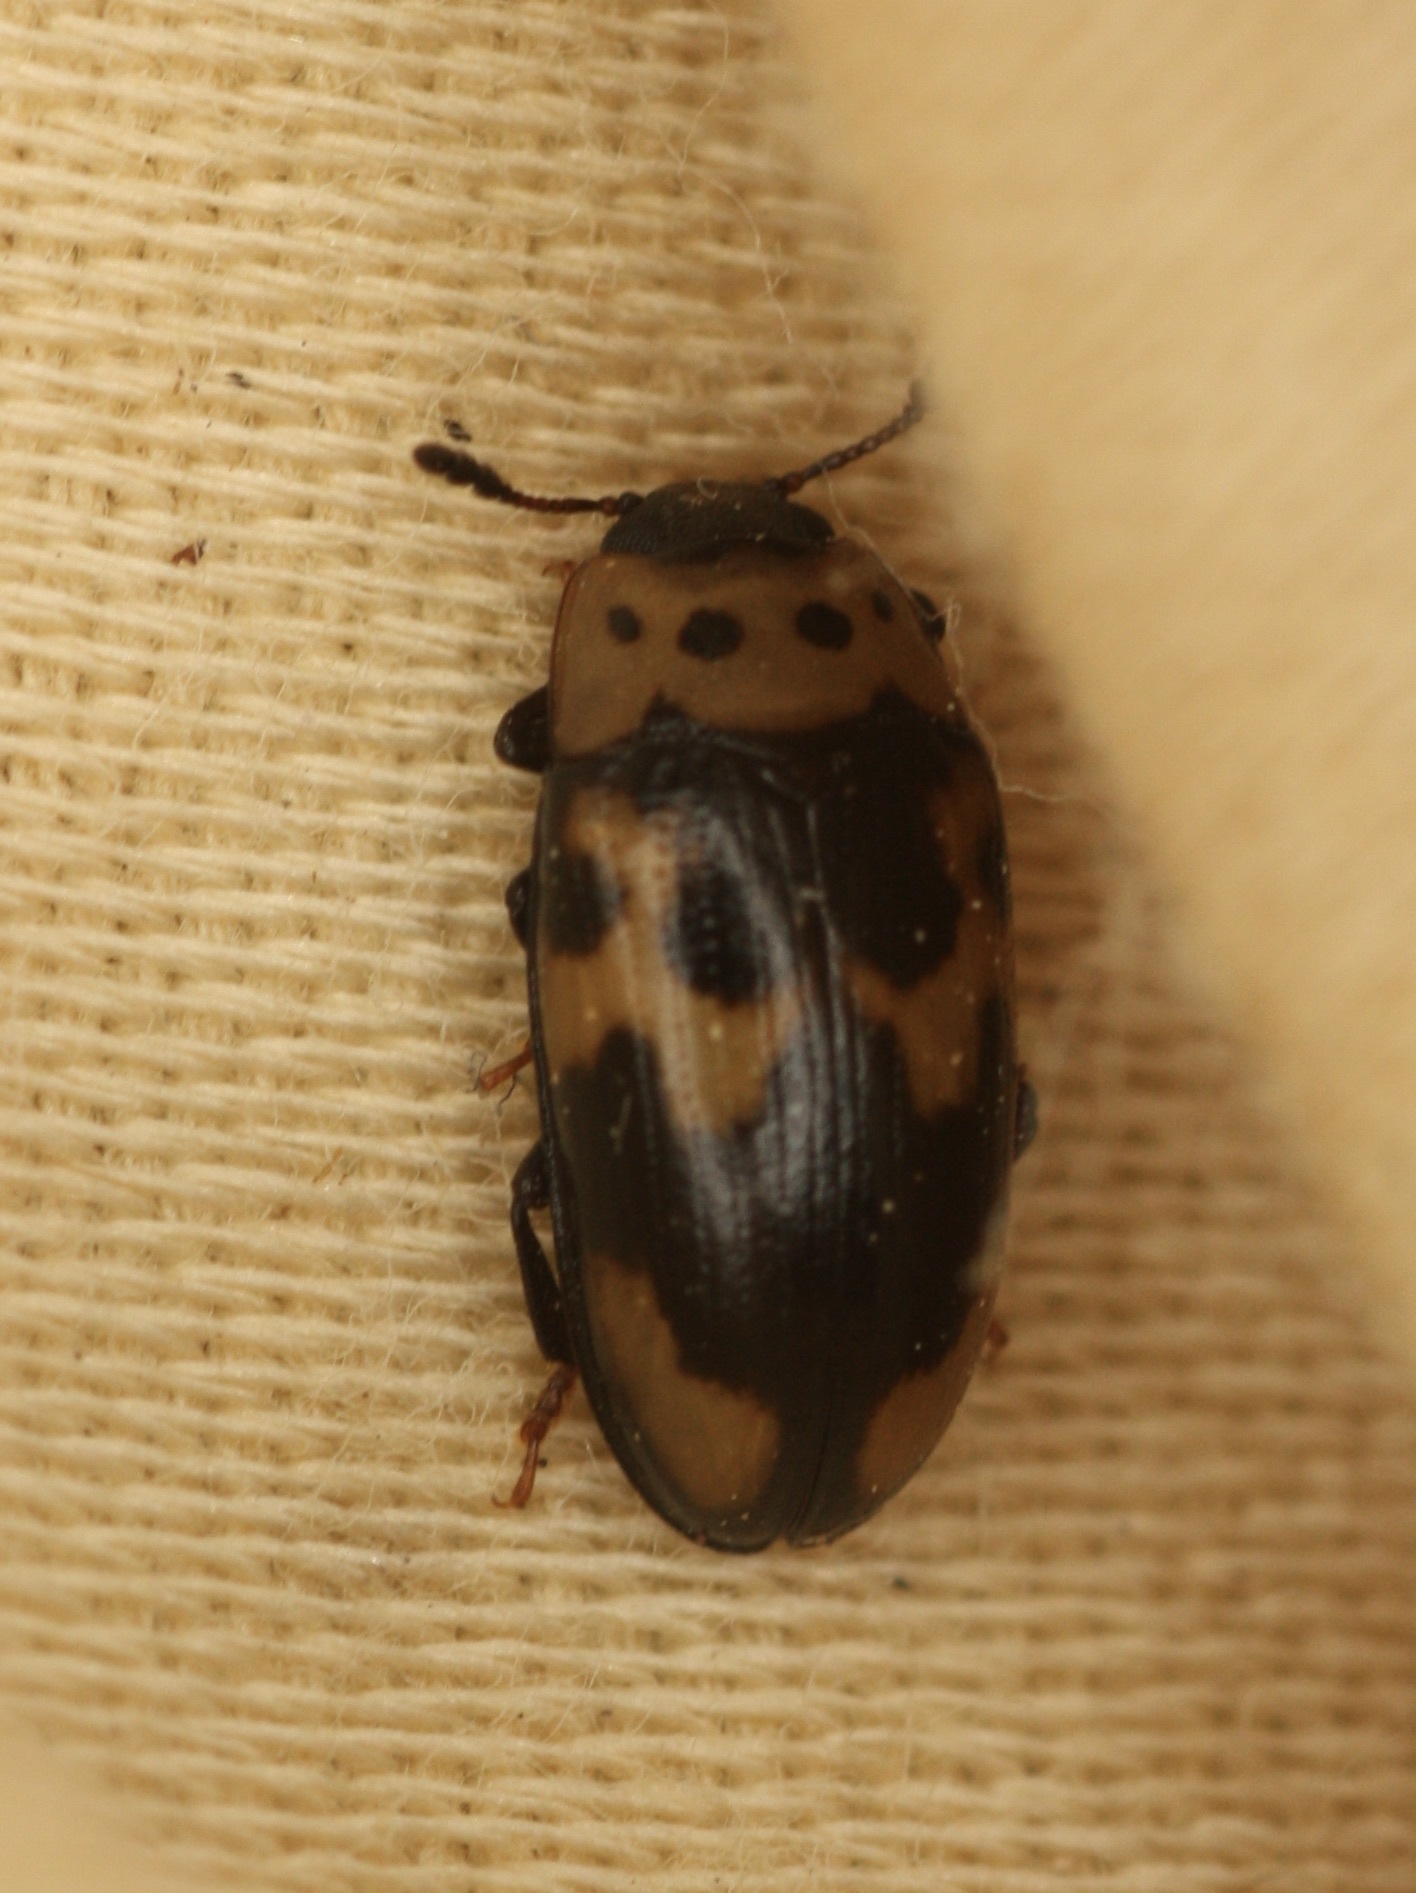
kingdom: Animalia
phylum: Arthropoda
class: Insecta
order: Coleoptera
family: Erotylidae
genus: Ischyrus
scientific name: Ischyrus quadripunctatus
